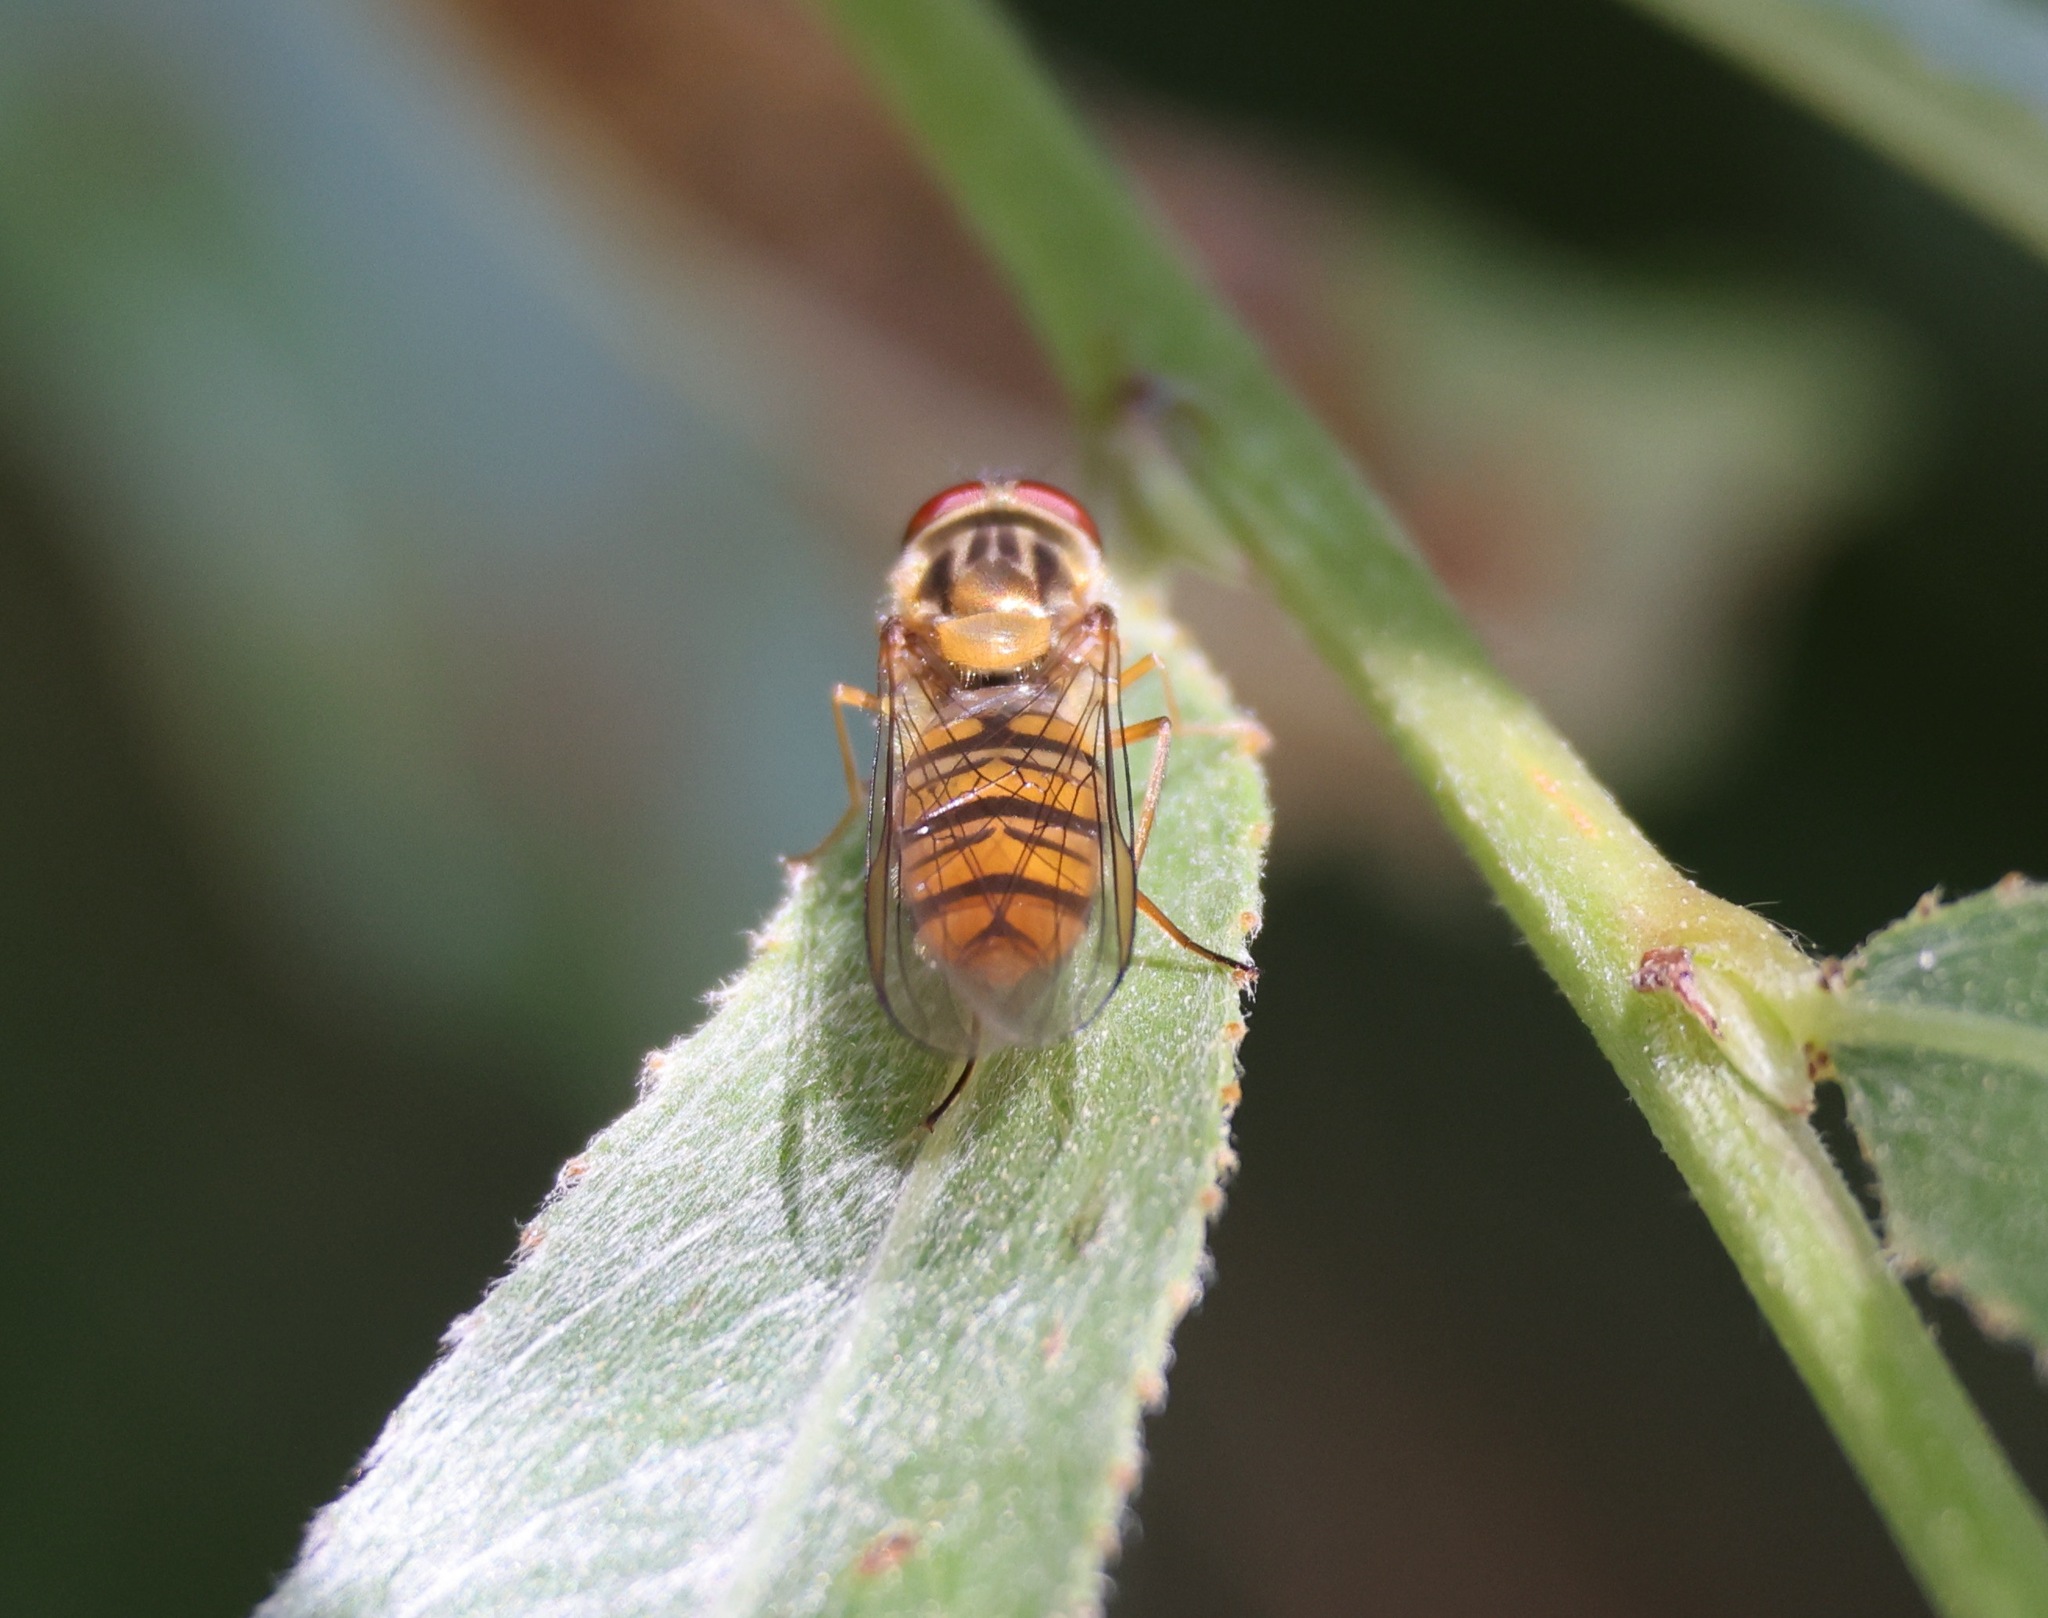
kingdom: Animalia
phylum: Arthropoda
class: Insecta
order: Diptera
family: Syrphidae
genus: Episyrphus
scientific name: Episyrphus balteatus
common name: Marmalade hoverfly
